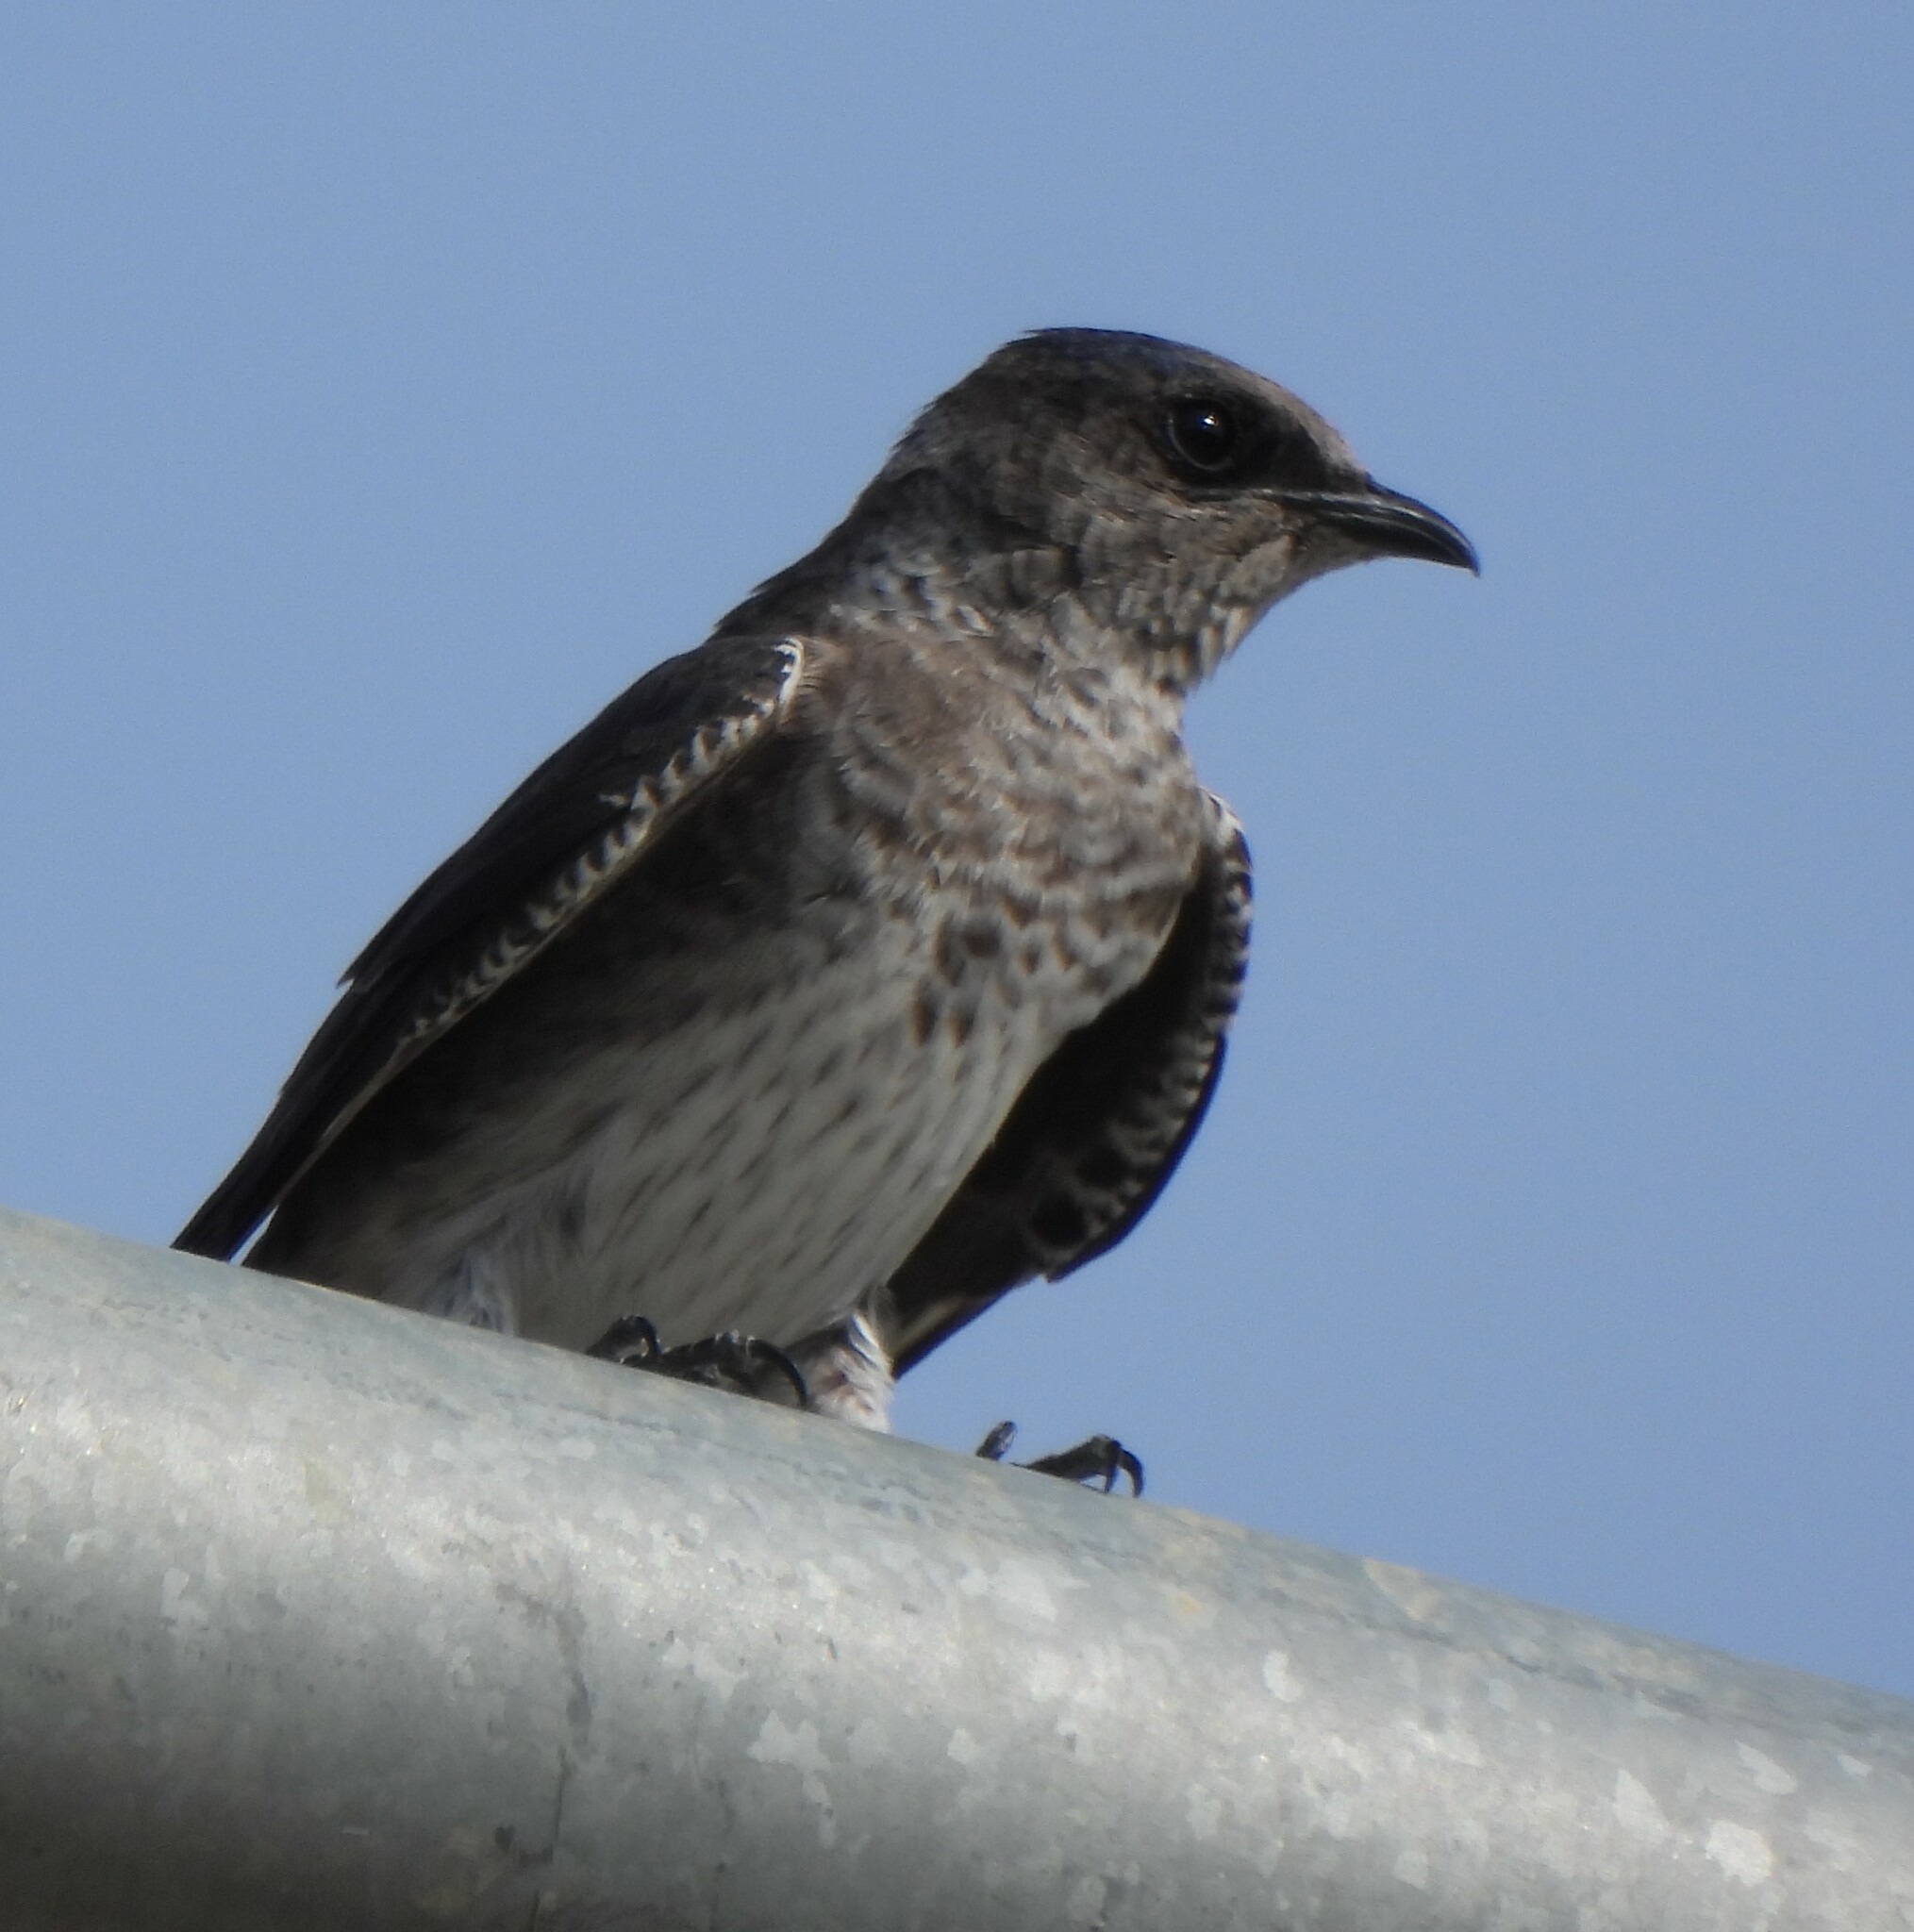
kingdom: Animalia
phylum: Chordata
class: Aves
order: Passeriformes
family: Hirundinidae
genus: Progne
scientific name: Progne subis
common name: Purple martin
